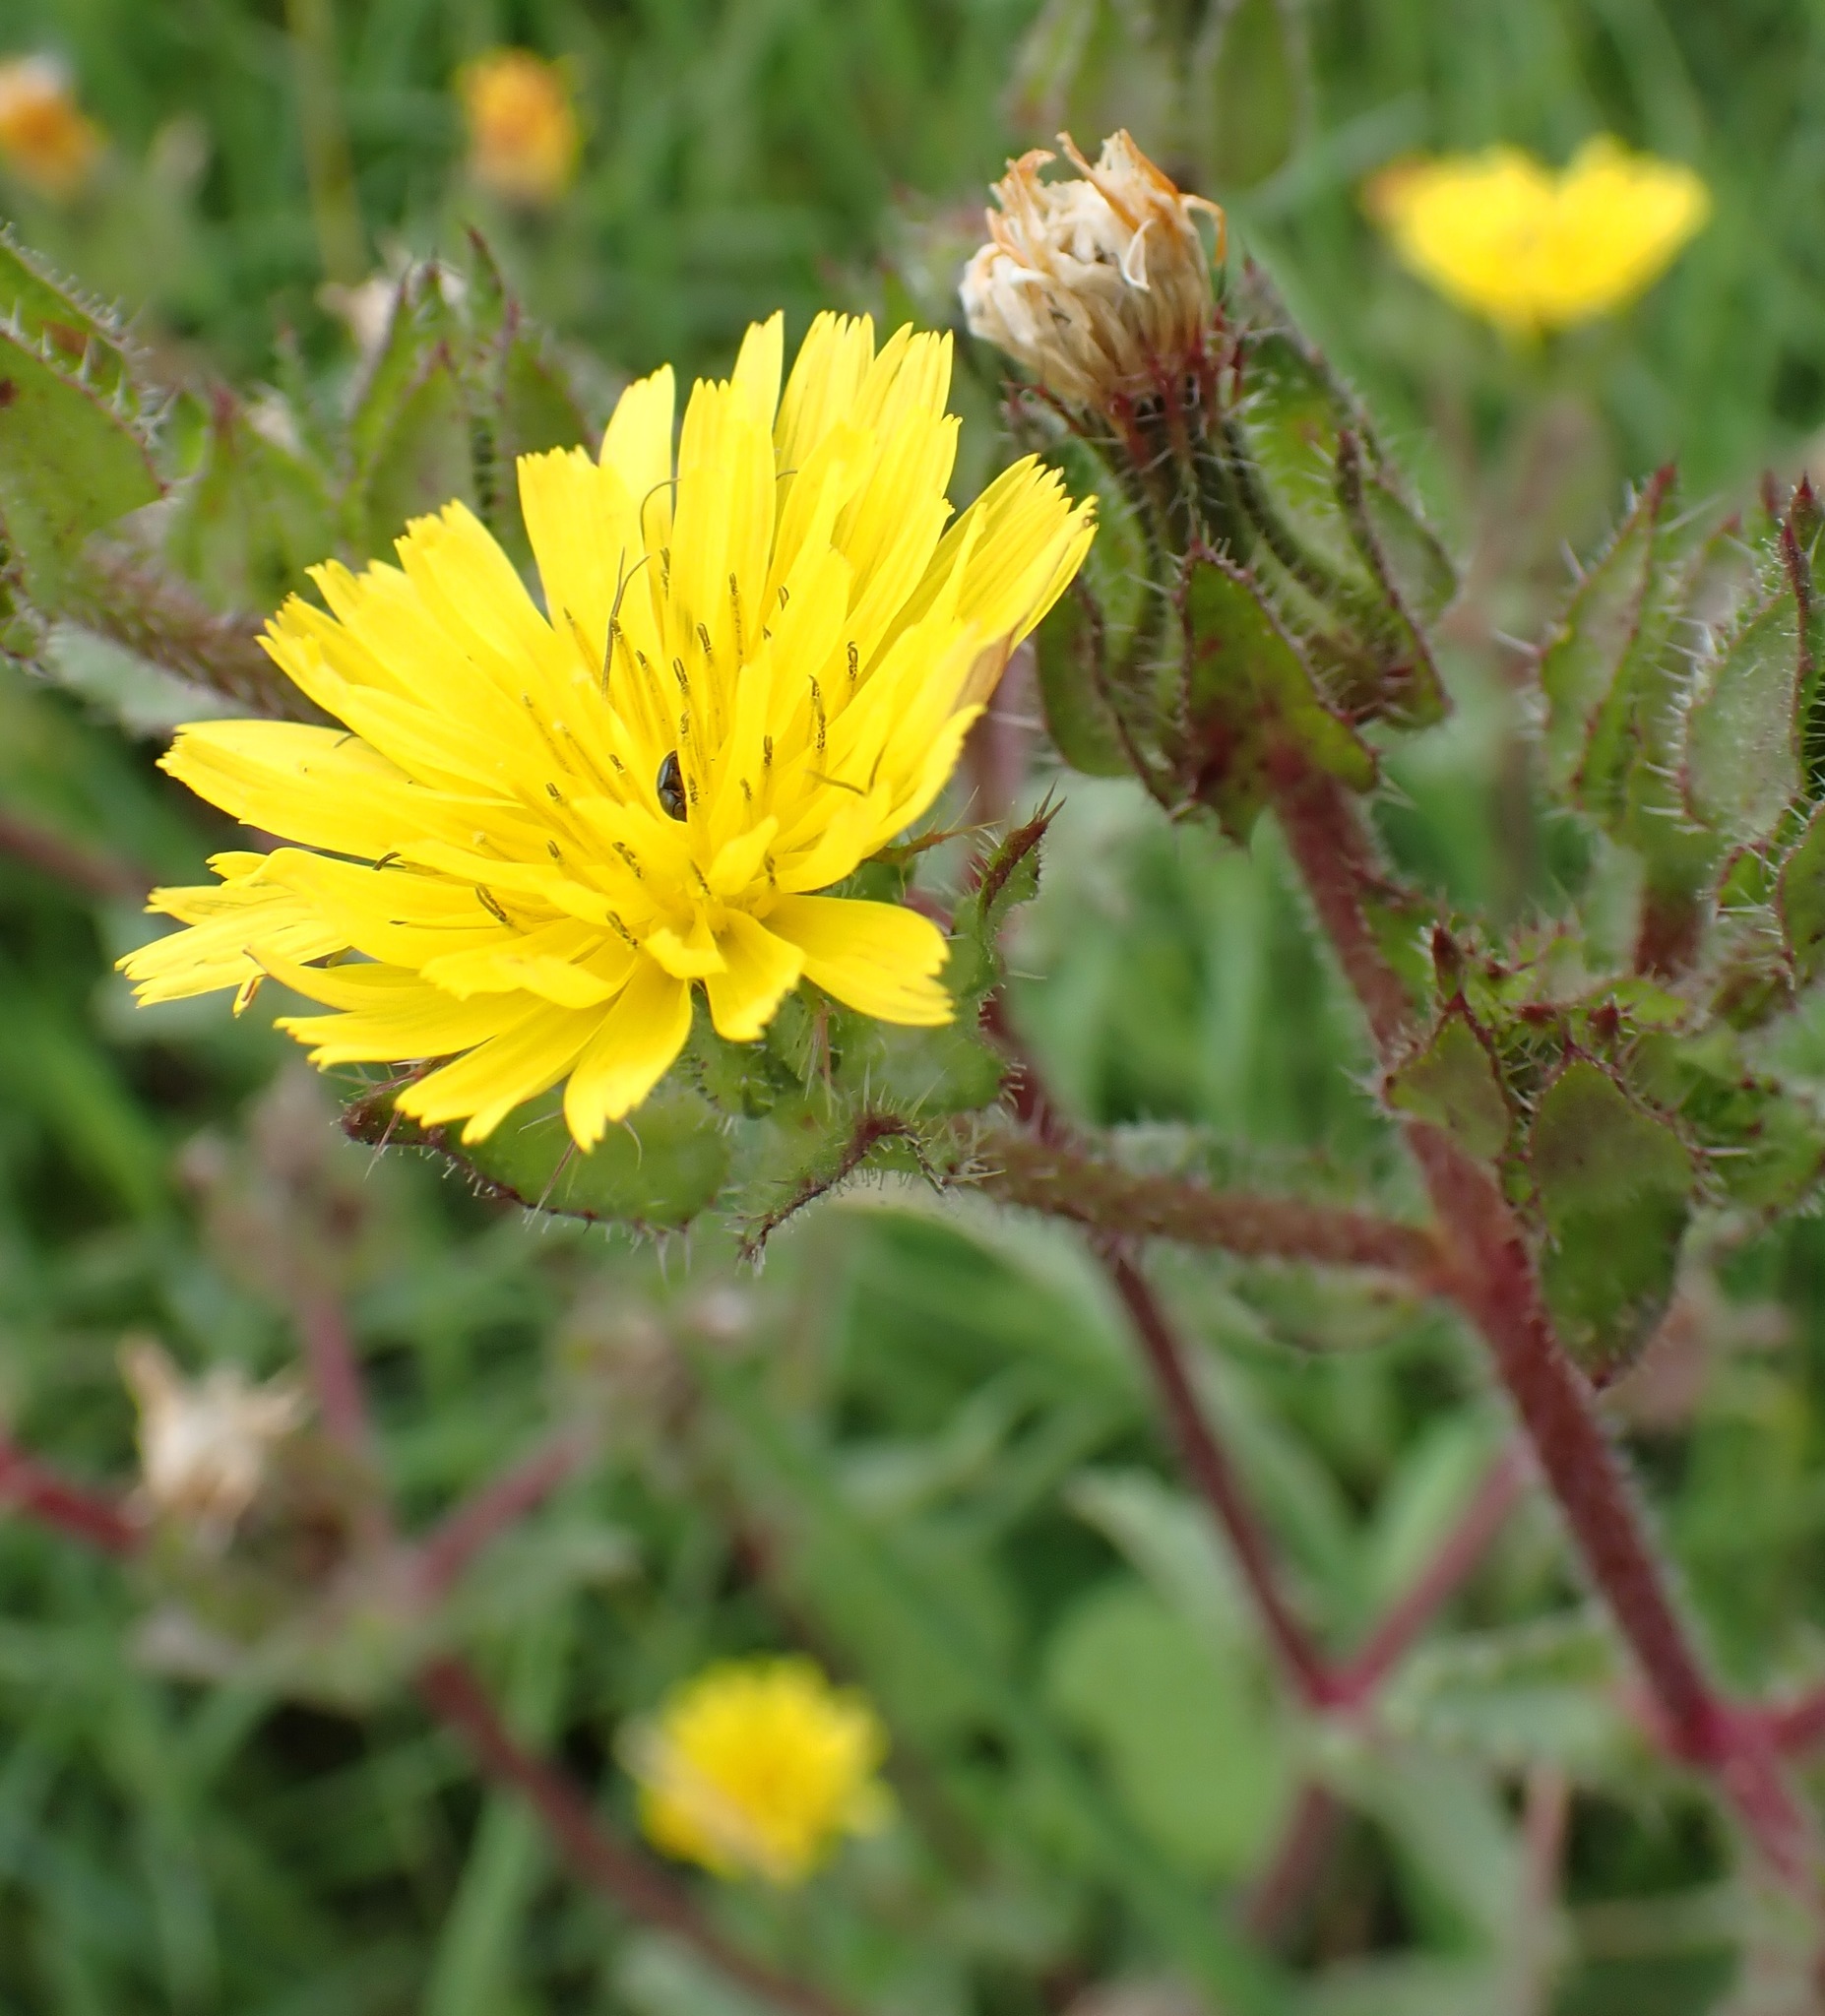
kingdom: Plantae
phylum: Tracheophyta
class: Magnoliopsida
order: Asterales
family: Asteraceae
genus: Helminthotheca
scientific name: Helminthotheca echioides
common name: Ox-tongue
